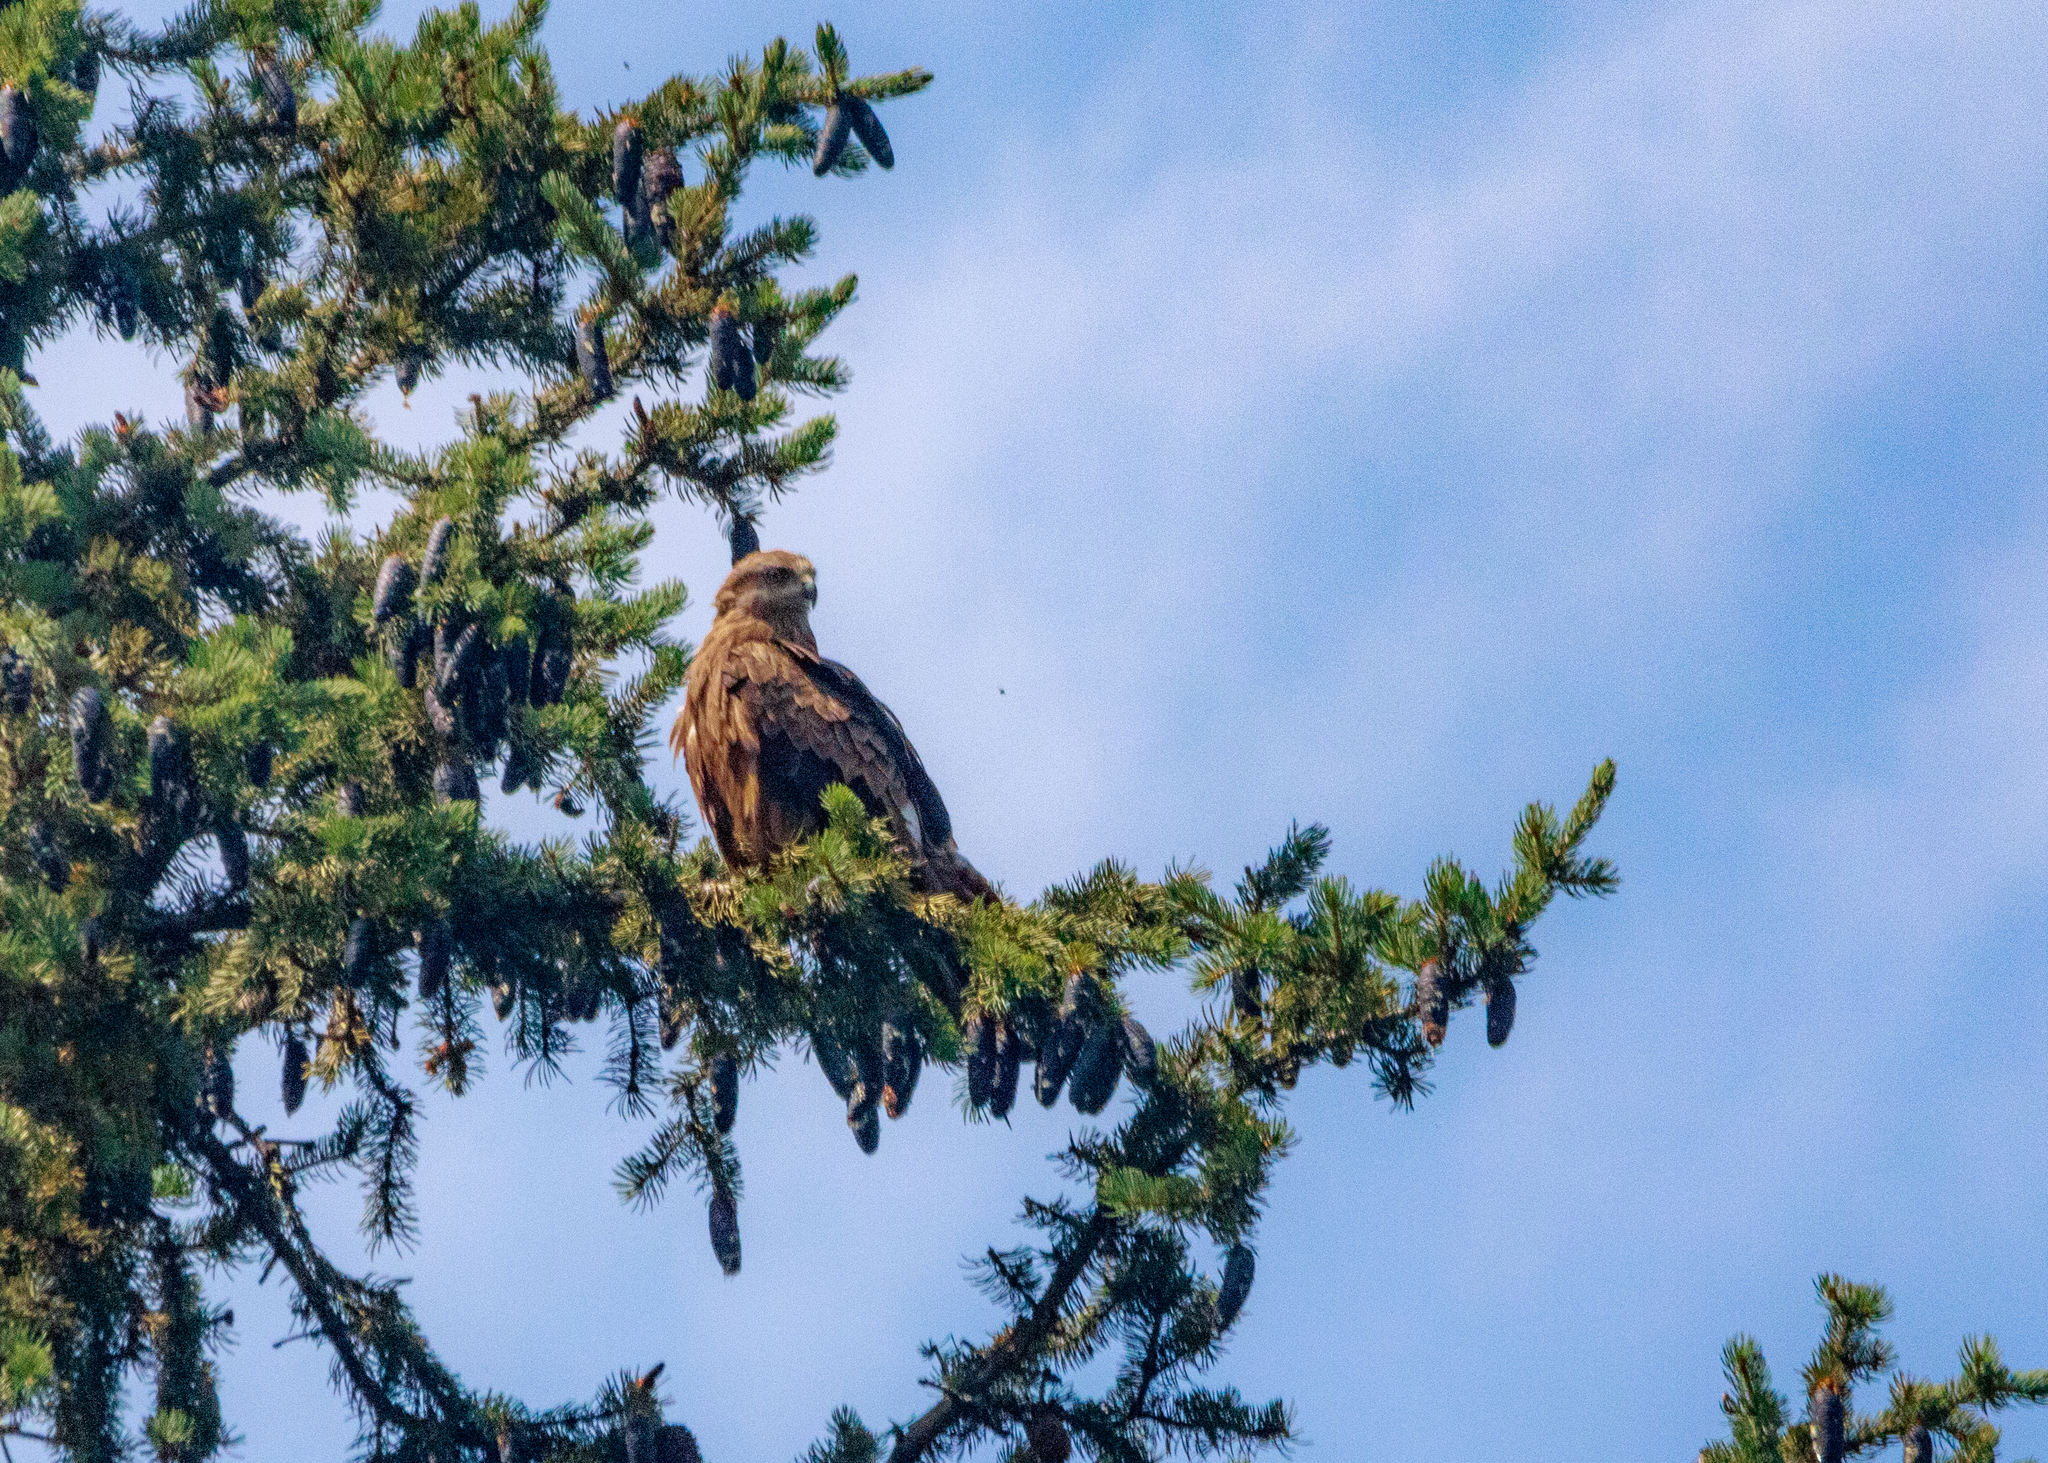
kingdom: Animalia
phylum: Chordata
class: Aves
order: Accipitriformes
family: Accipitridae
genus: Milvus
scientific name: Milvus migrans
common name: Black kite
